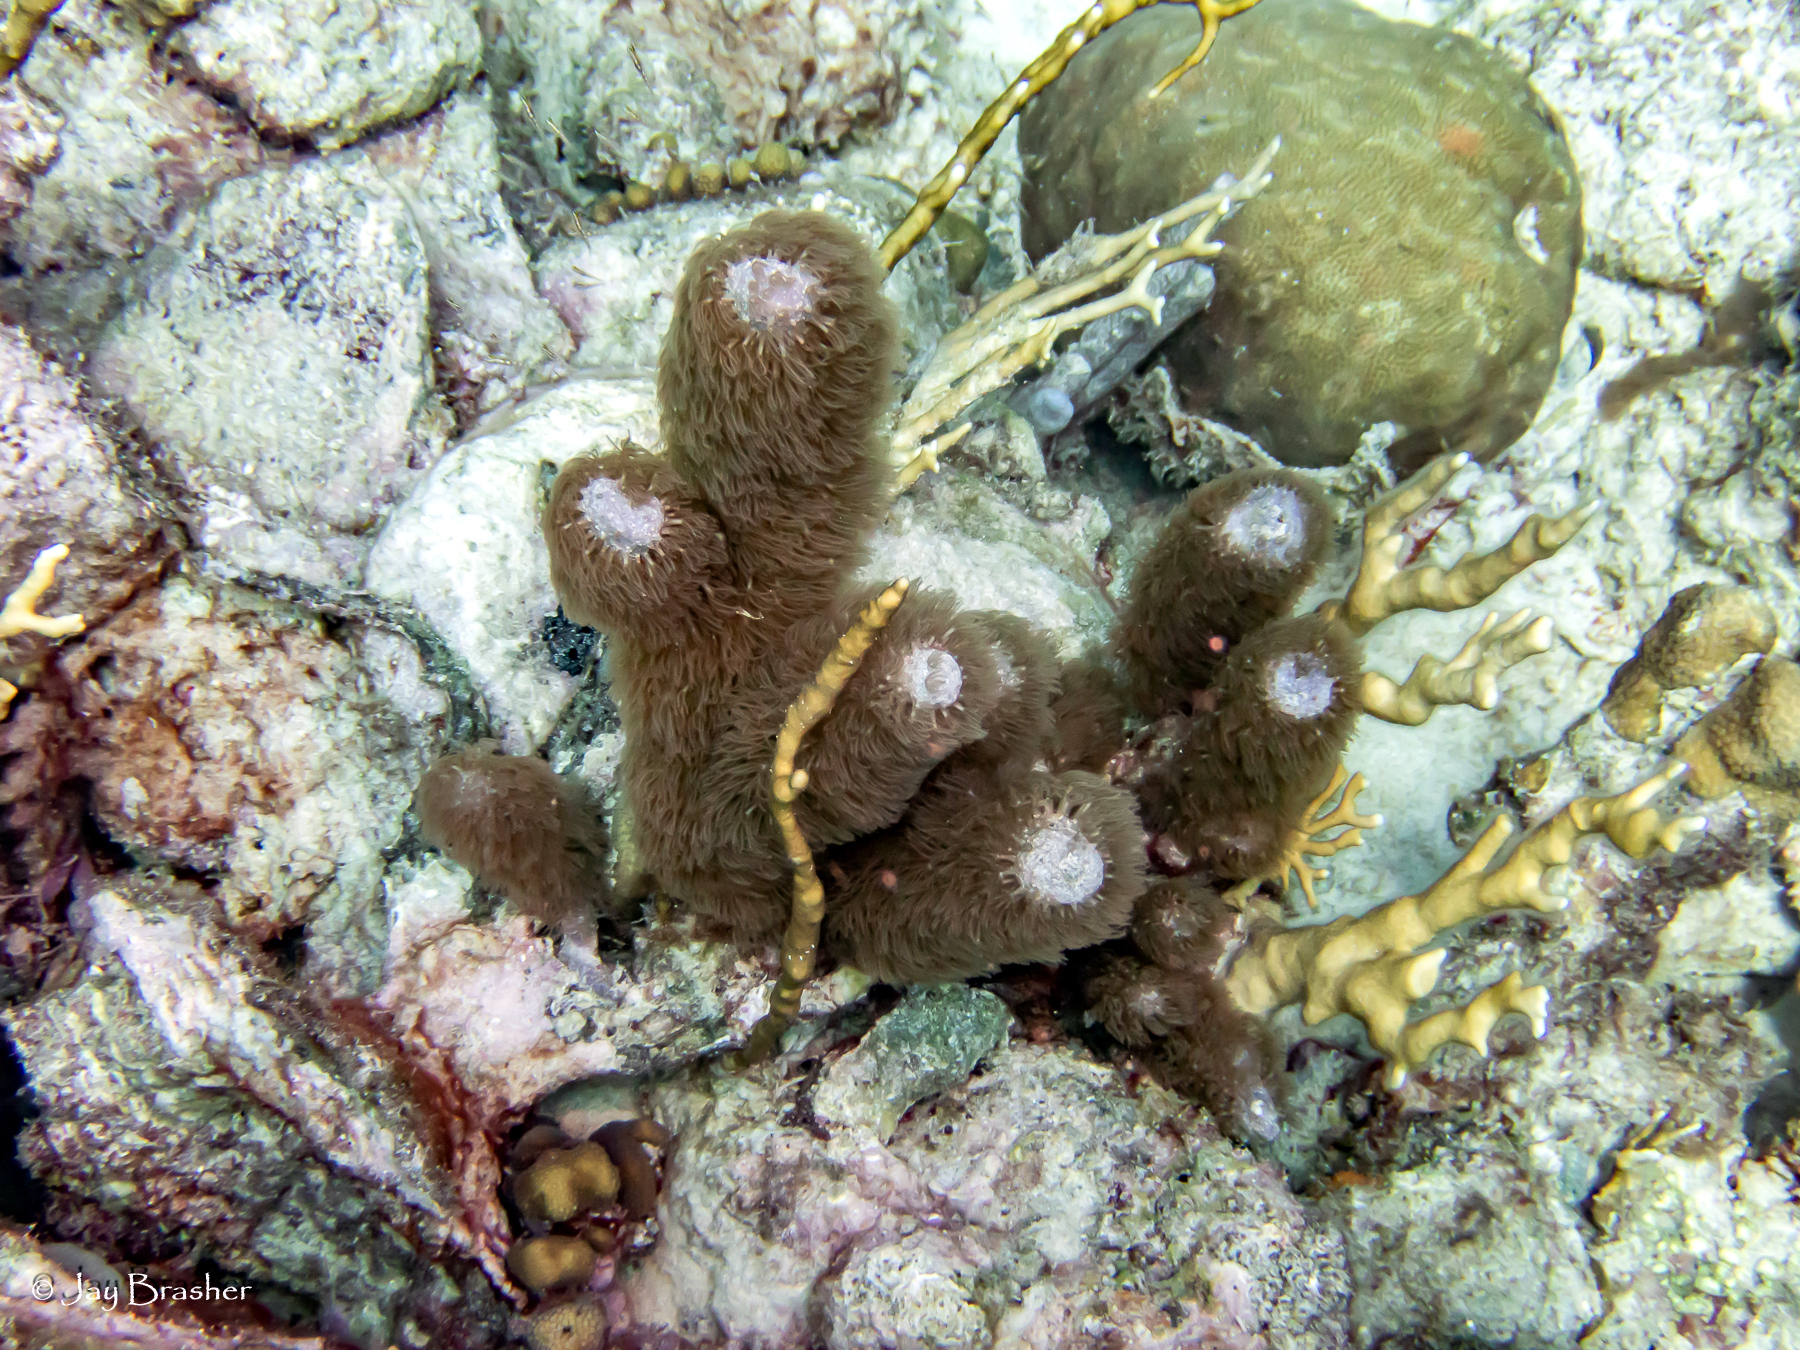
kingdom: Animalia
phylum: Cnidaria
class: Anthozoa
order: Scleralcyonacea
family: Briareidae
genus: Briareum
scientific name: Briareum asbestinum
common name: Corky sea finger
